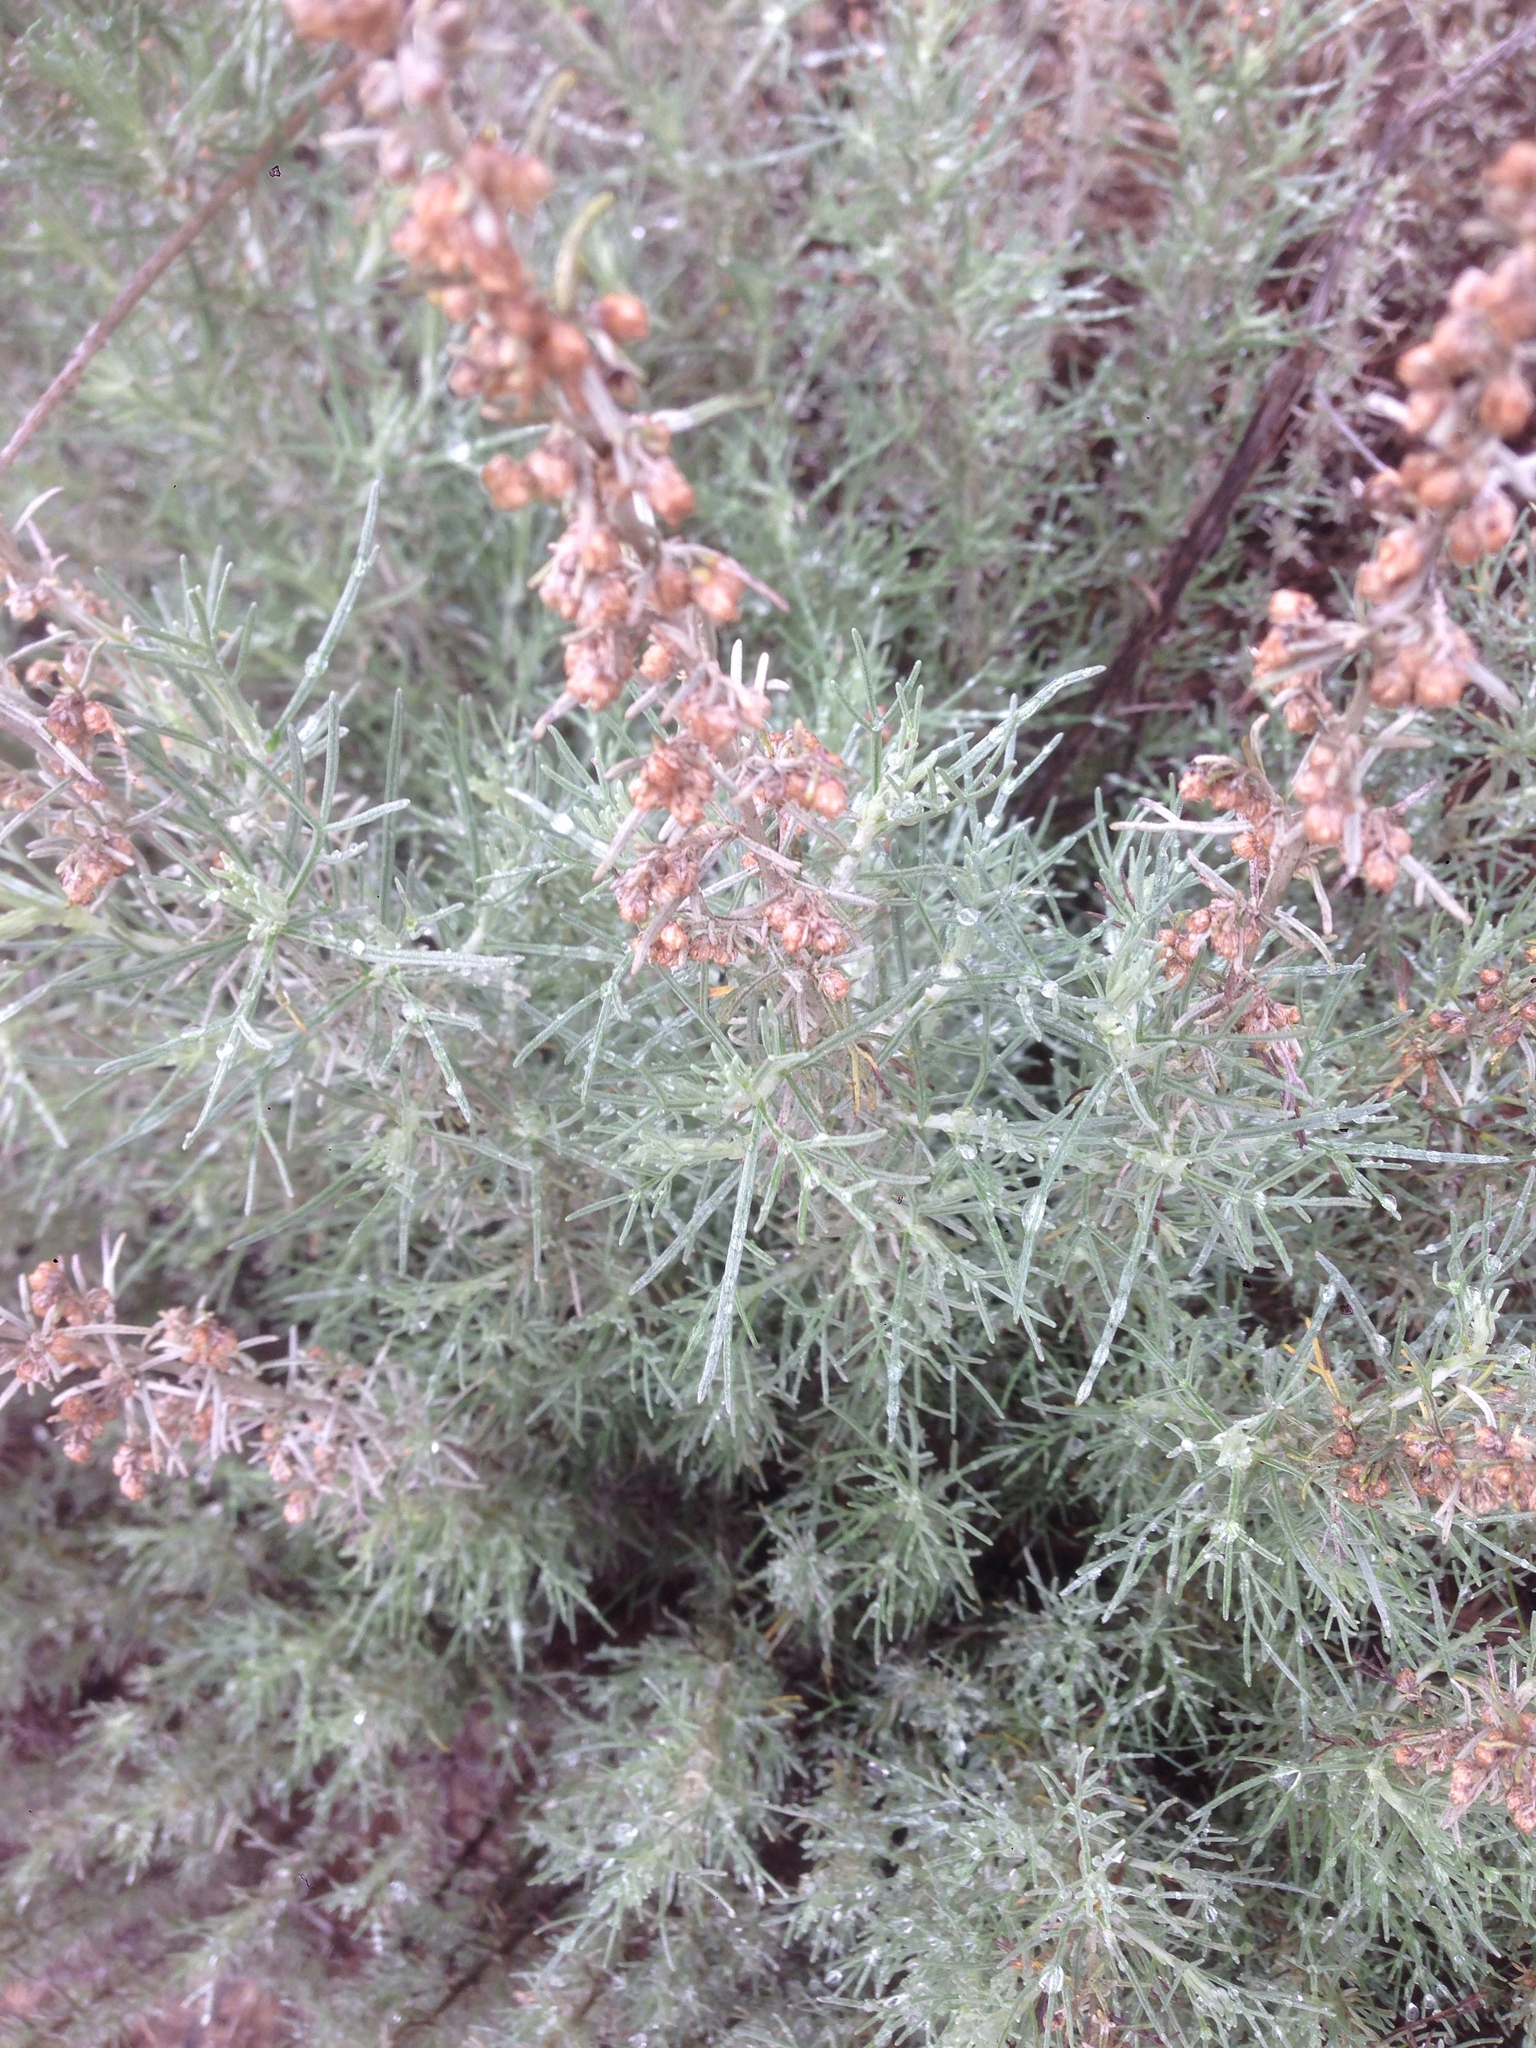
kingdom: Plantae
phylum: Tracheophyta
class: Magnoliopsida
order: Asterales
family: Asteraceae
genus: Artemisia
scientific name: Artemisia californica
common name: California sagebrush
